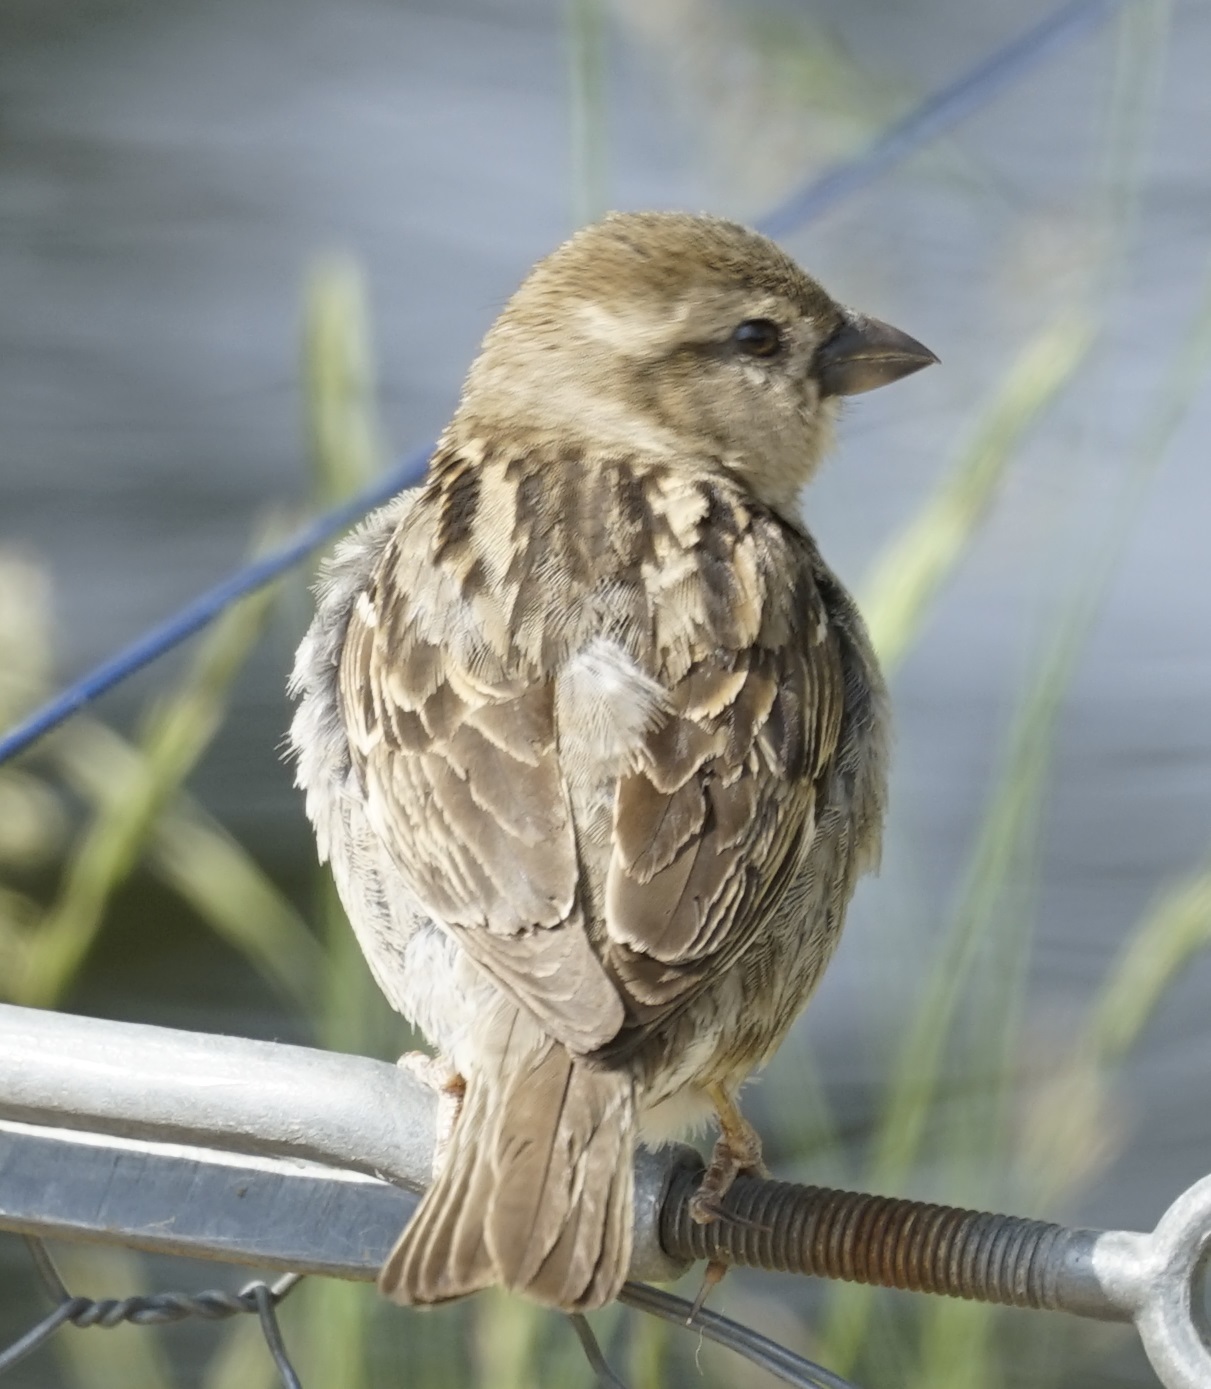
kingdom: Animalia
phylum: Chordata
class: Aves
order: Passeriformes
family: Passeridae
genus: Passer
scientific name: Passer domesticus
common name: House sparrow
